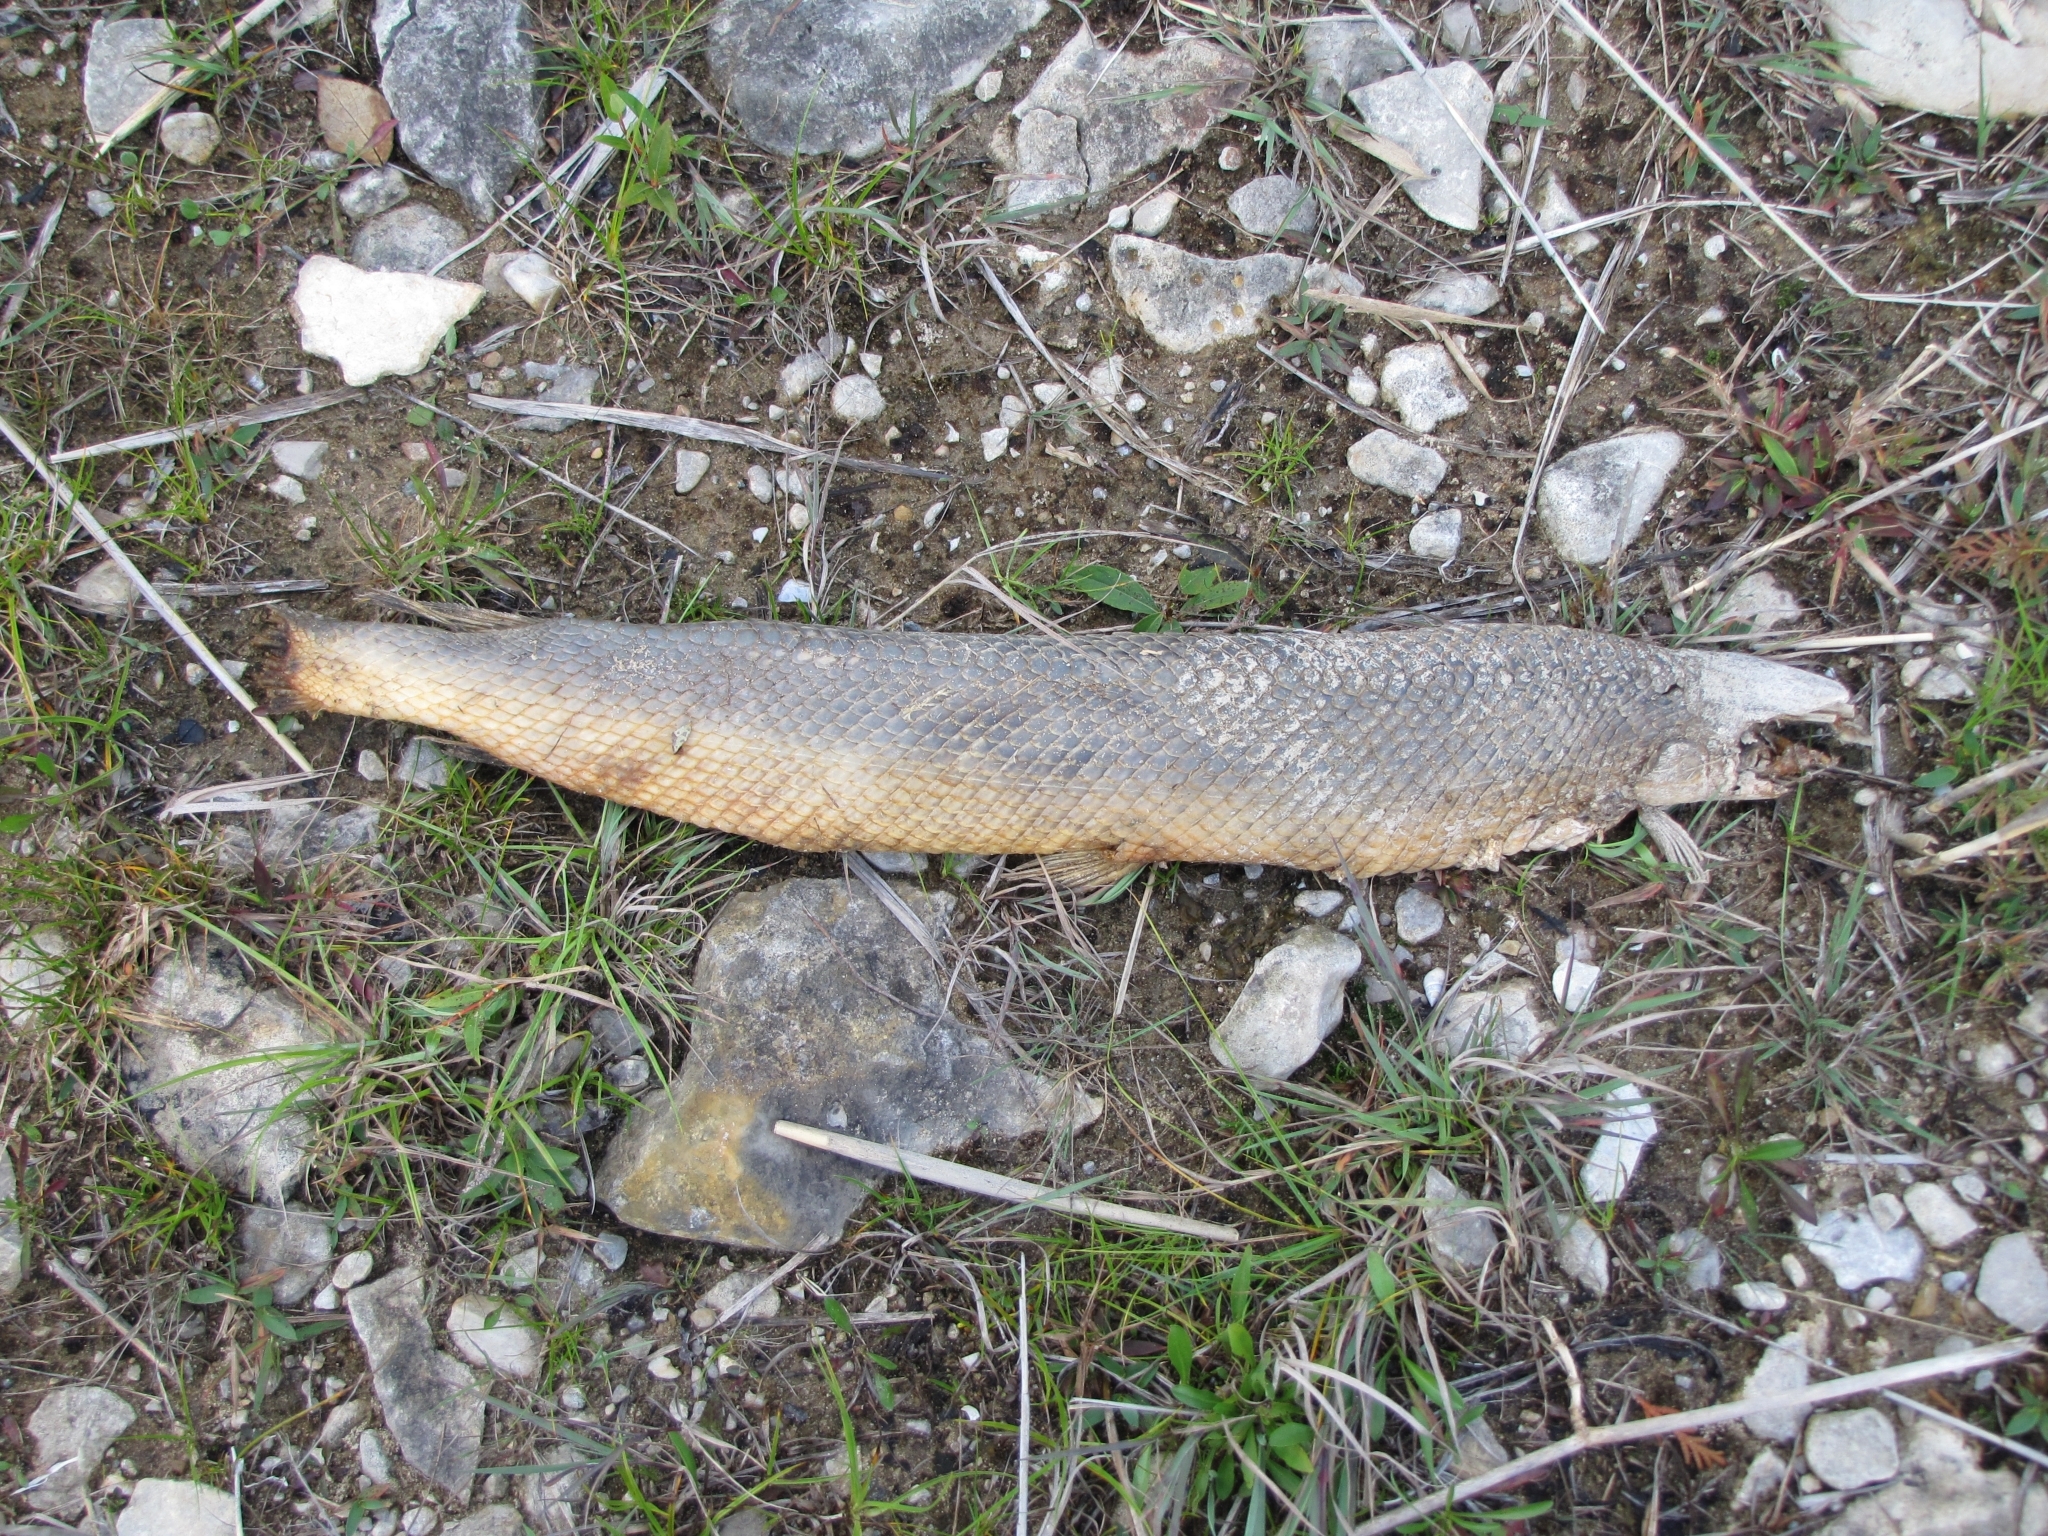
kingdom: Animalia
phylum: Chordata
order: Lepisosteiformes
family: Lepisosteidae
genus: Lepisosteus
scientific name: Lepisosteus osseus
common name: Longnose gar
